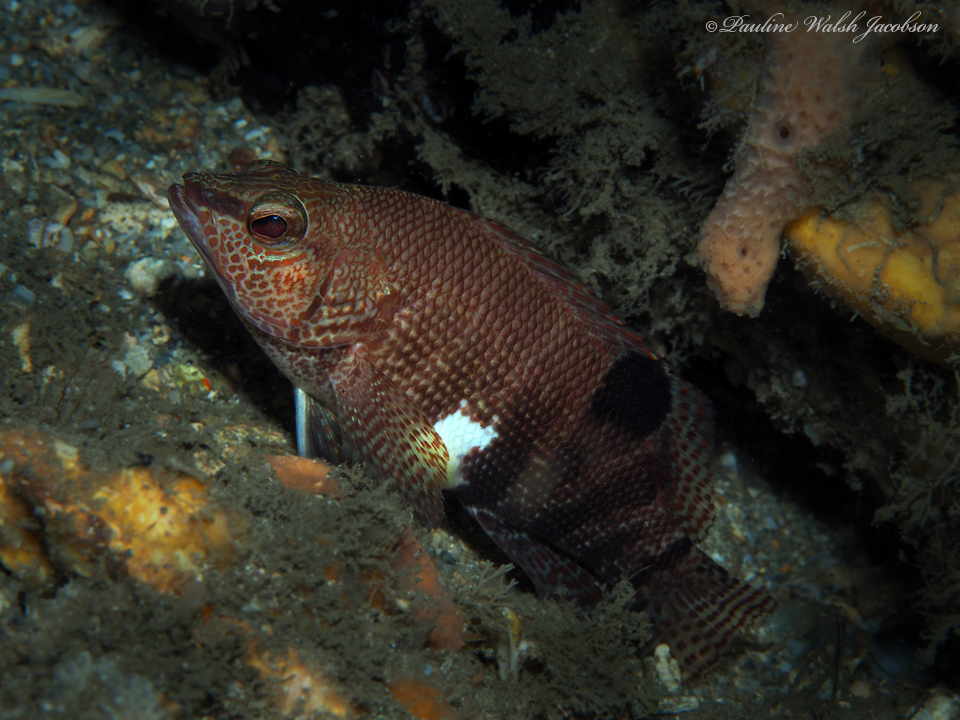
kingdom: Animalia
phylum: Chordata
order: Perciformes
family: Serranidae
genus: Serranus
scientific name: Serranus subligarius
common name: Belted sandfish
